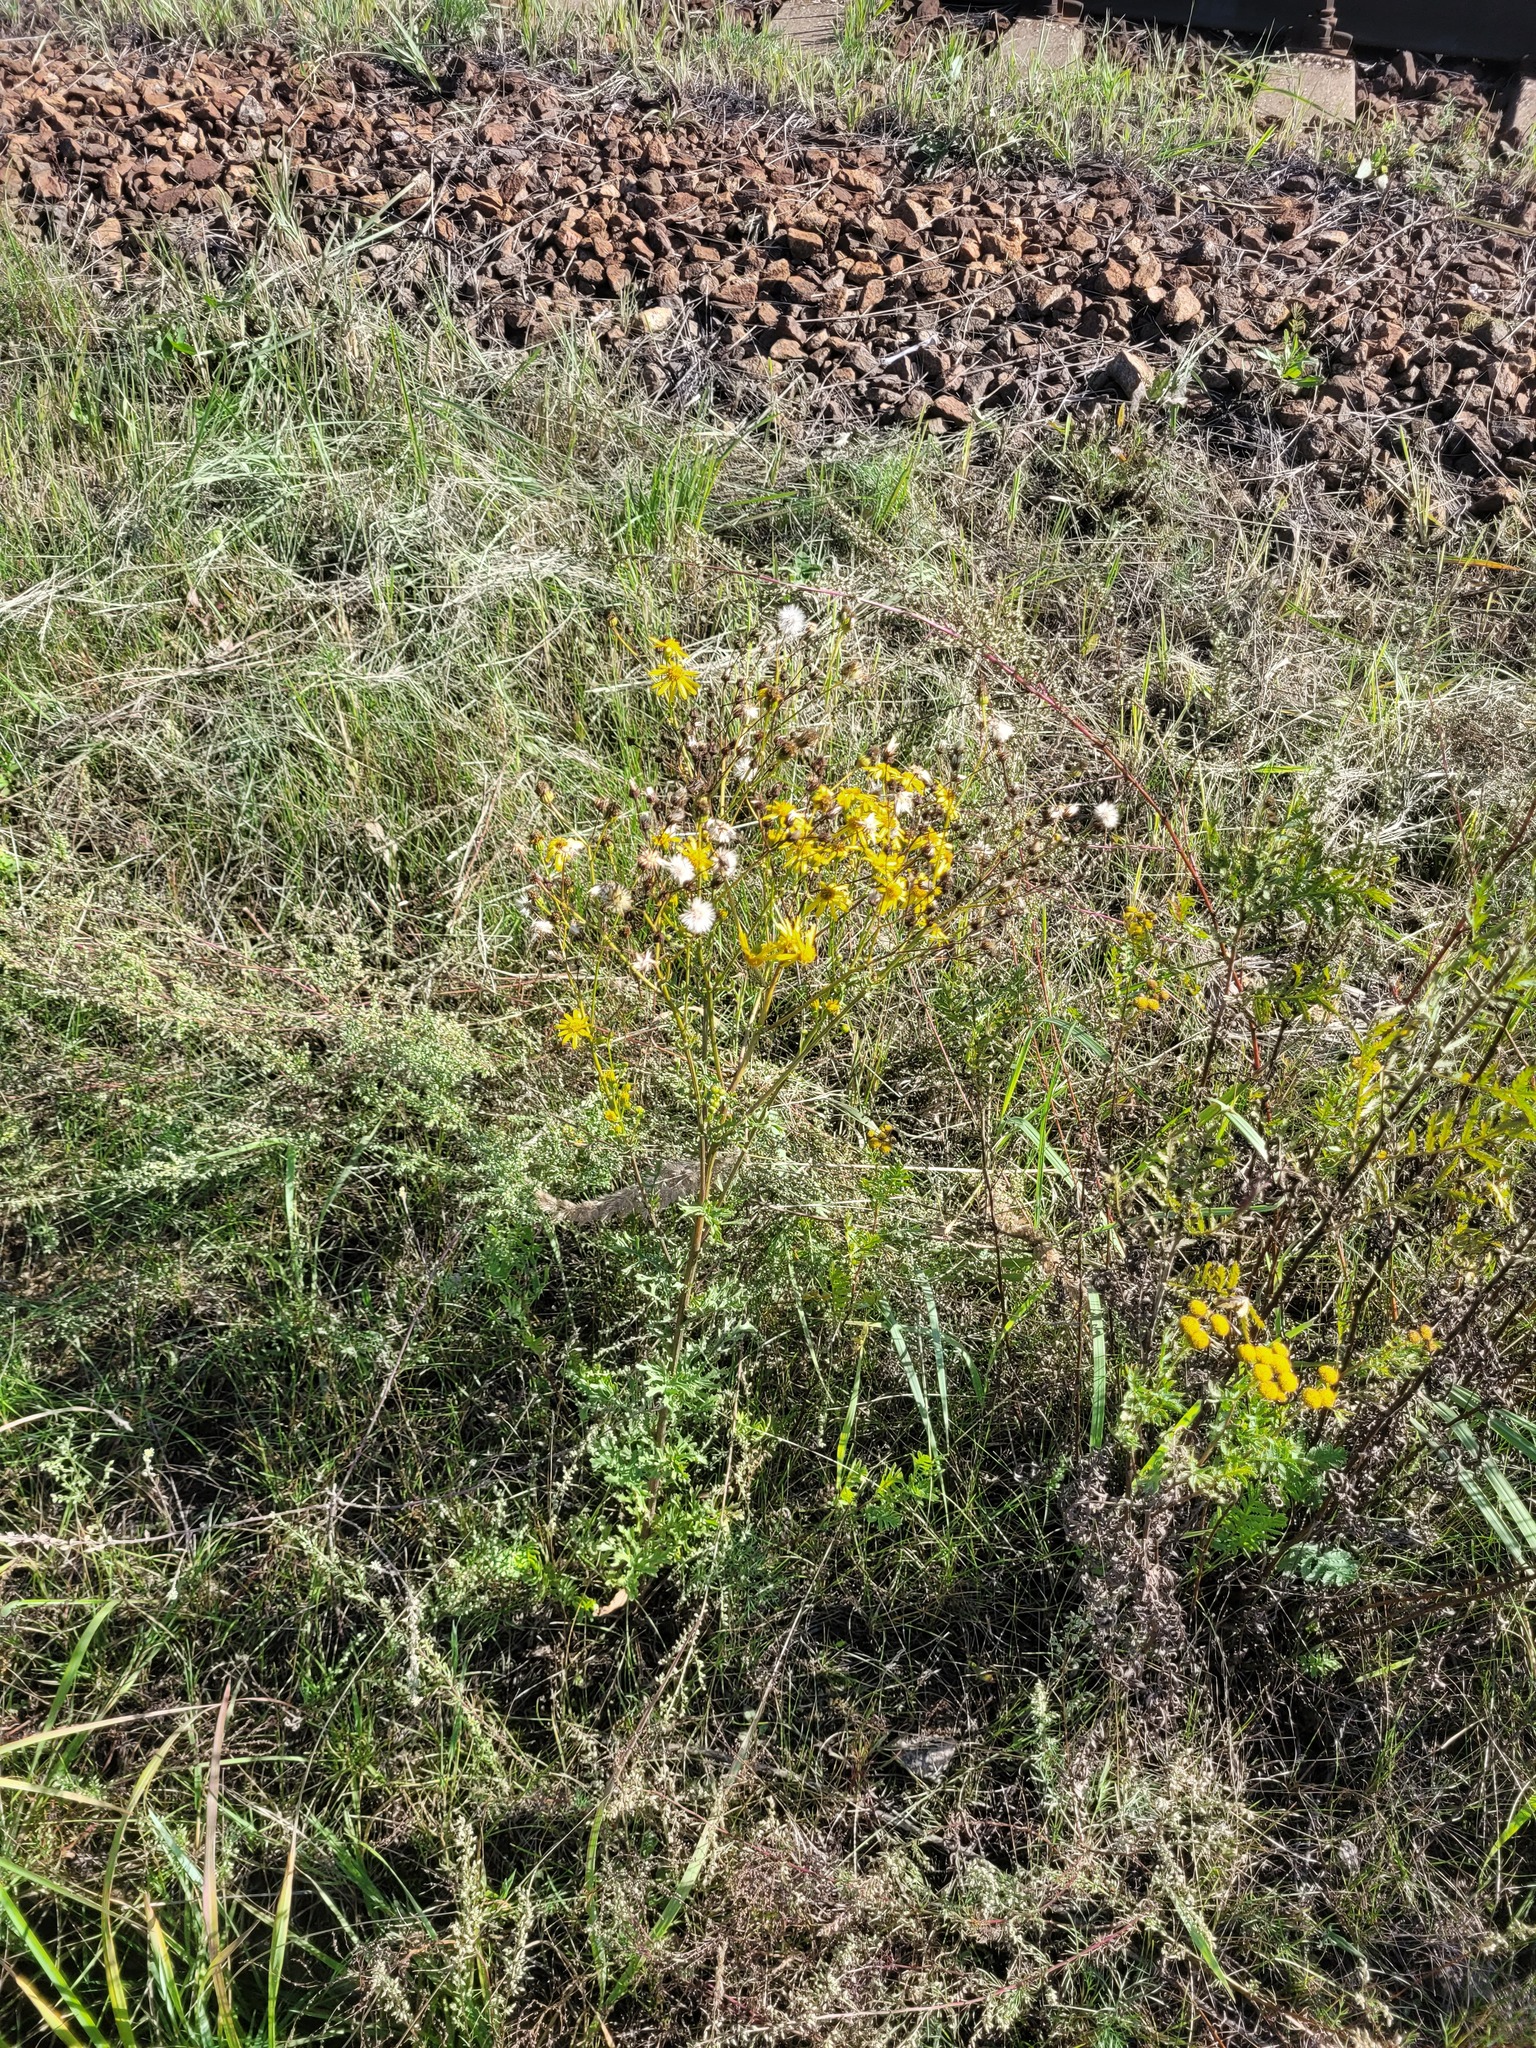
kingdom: Plantae
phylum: Tracheophyta
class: Magnoliopsida
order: Asterales
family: Asteraceae
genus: Jacobaea
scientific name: Jacobaea vulgaris
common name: Stinking willie
